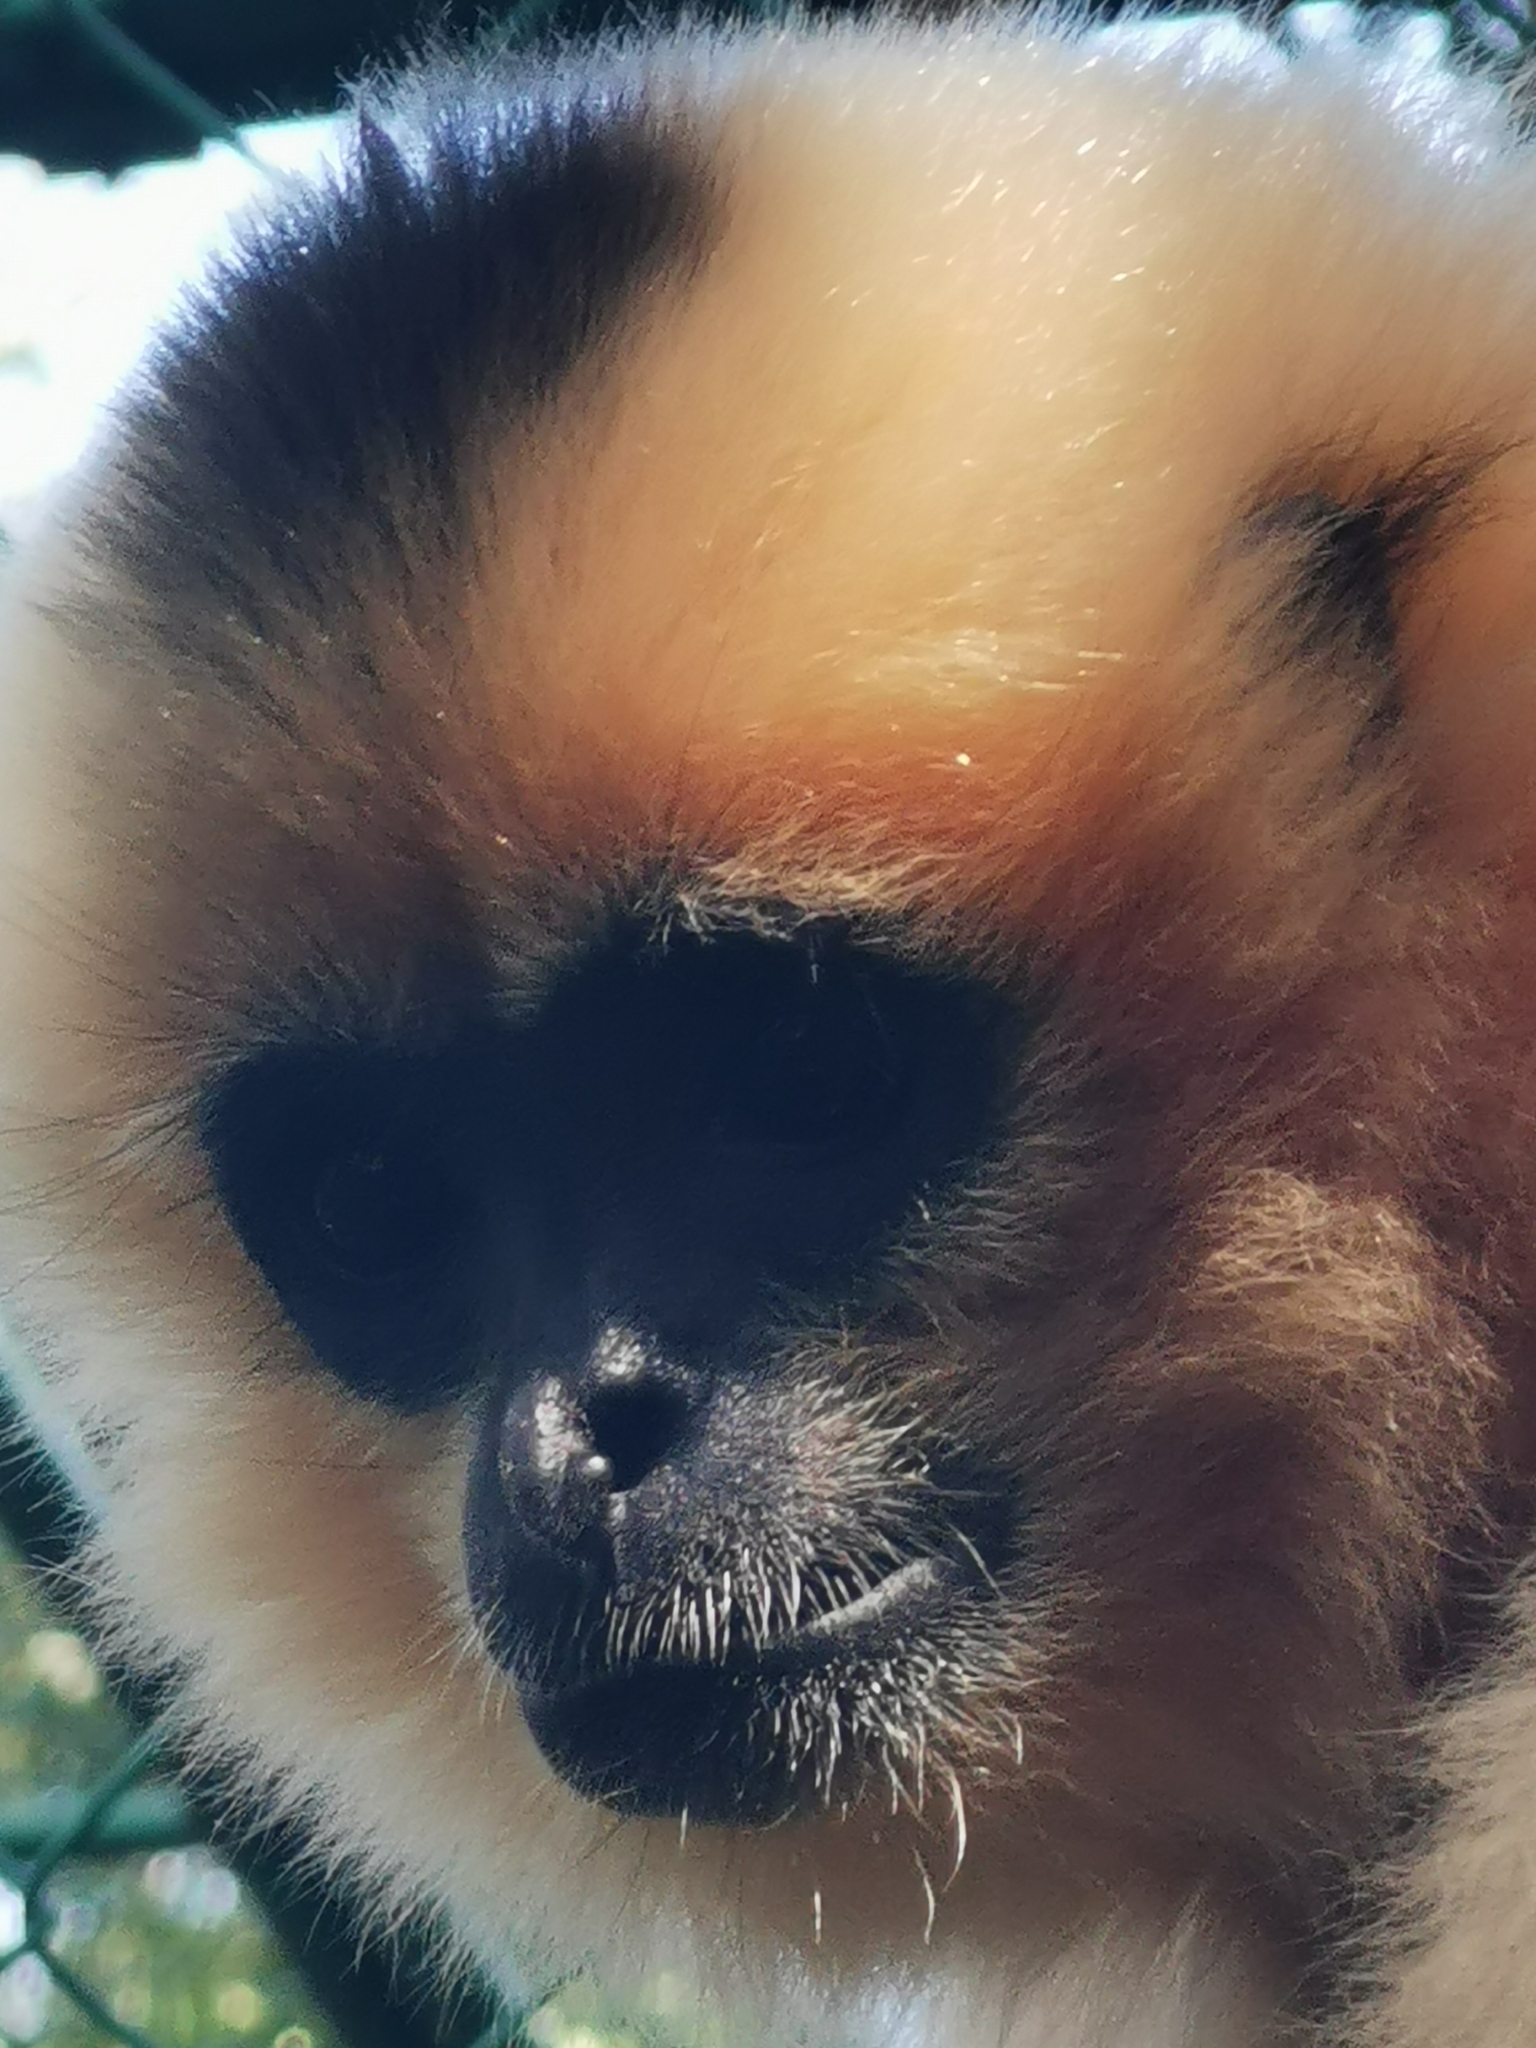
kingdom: Animalia
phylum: Chordata
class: Mammalia
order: Primates
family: Hylobatidae
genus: Nomascus
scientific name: Nomascus gabriellae
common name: Red-cheeked gibbon
